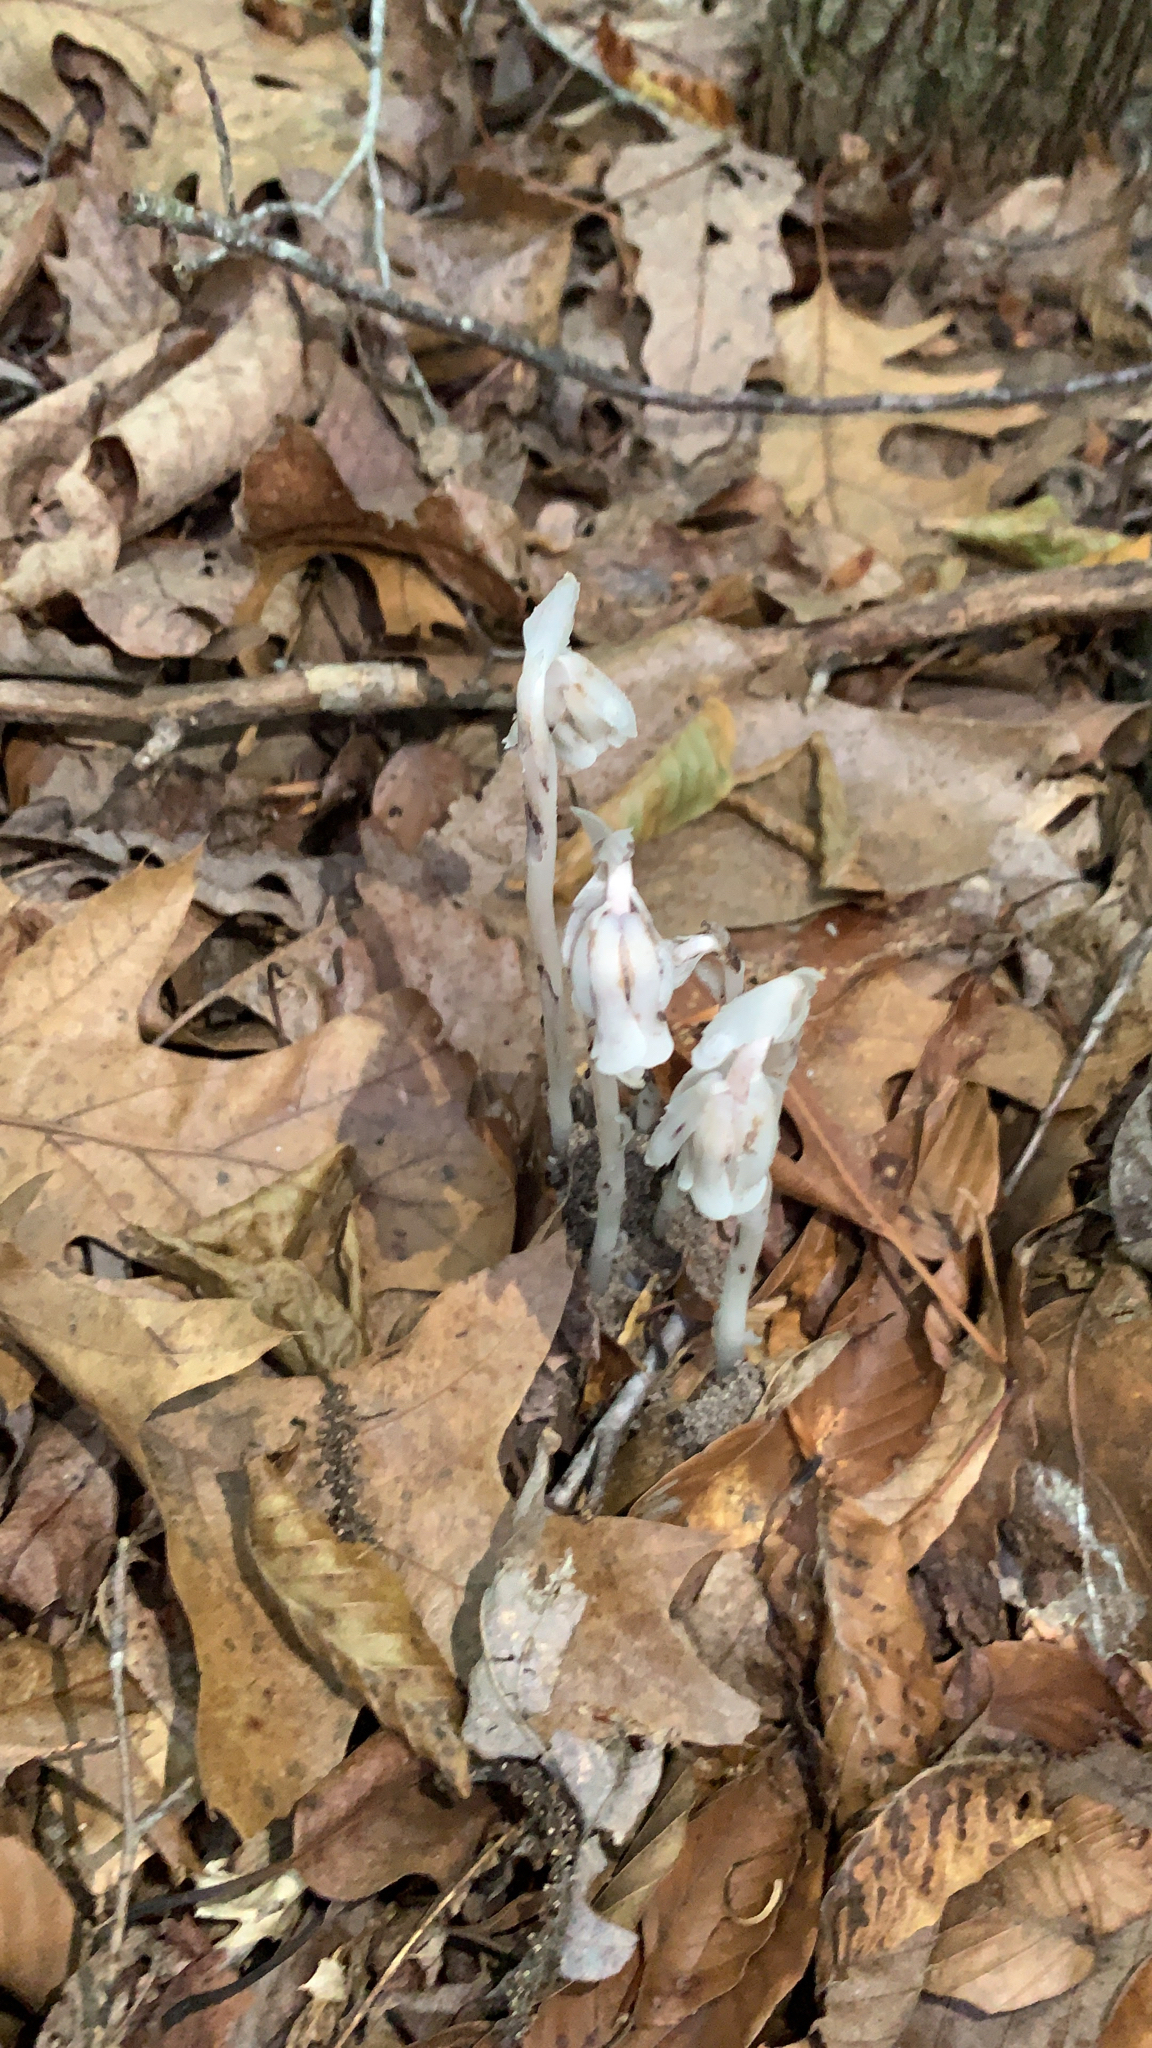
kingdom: Plantae
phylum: Tracheophyta
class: Magnoliopsida
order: Ericales
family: Ericaceae
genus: Monotropa
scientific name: Monotropa uniflora
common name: Convulsion root
